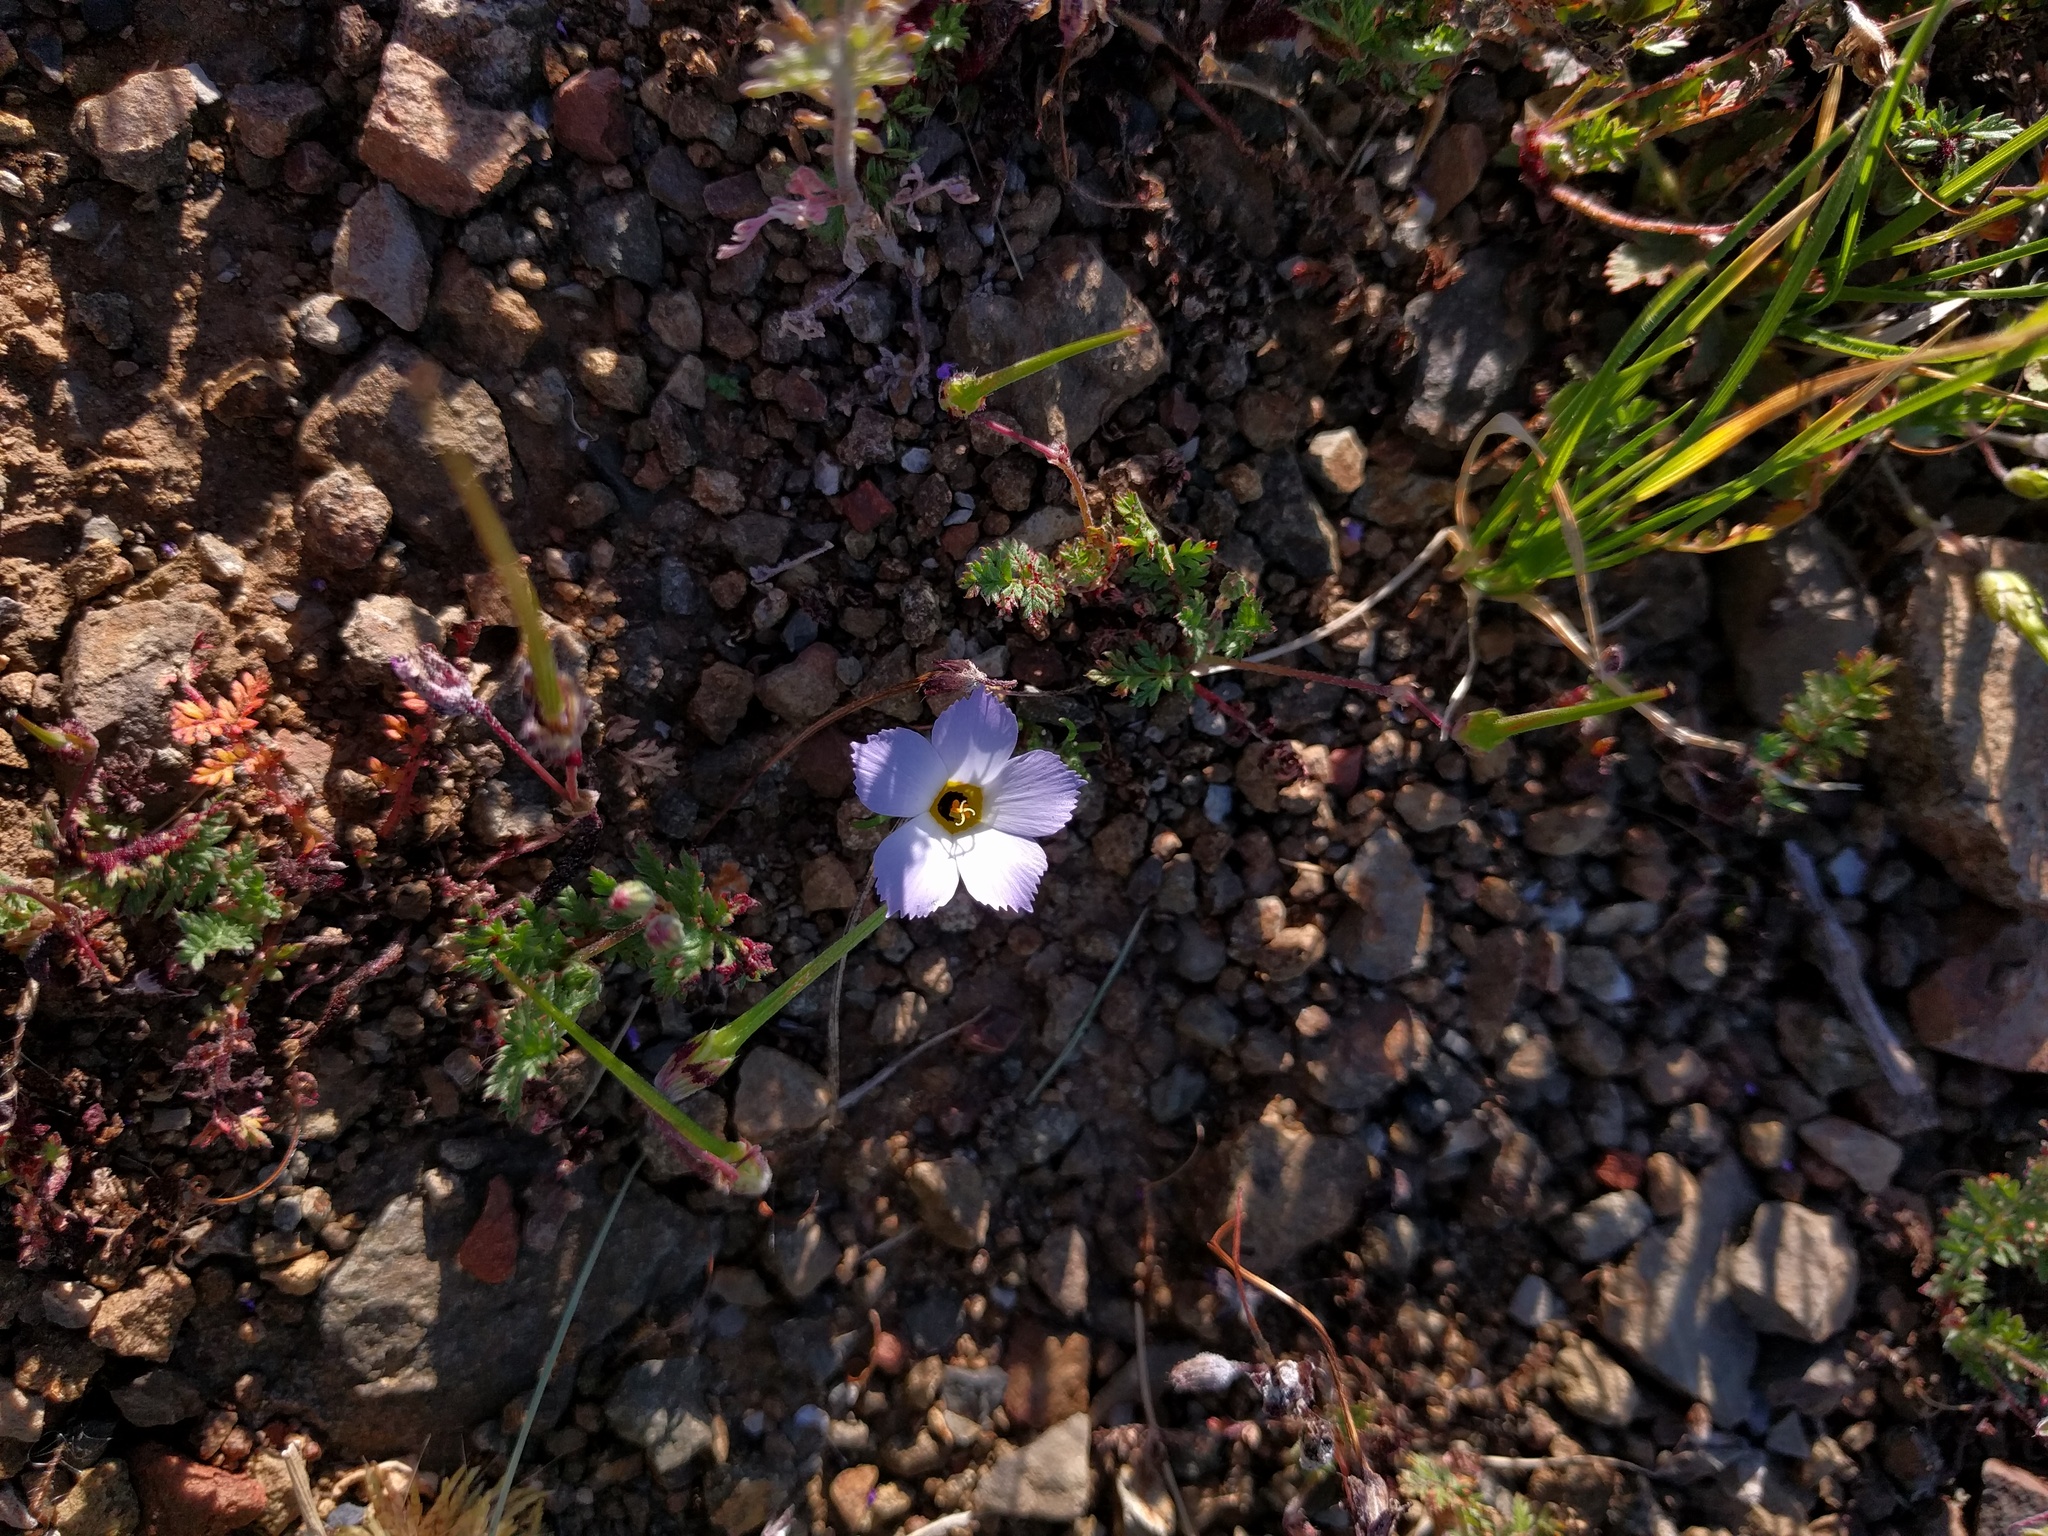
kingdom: Plantae
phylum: Tracheophyta
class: Magnoliopsida
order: Ericales
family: Polemoniaceae
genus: Linanthus
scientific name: Linanthus dianthiflorus
